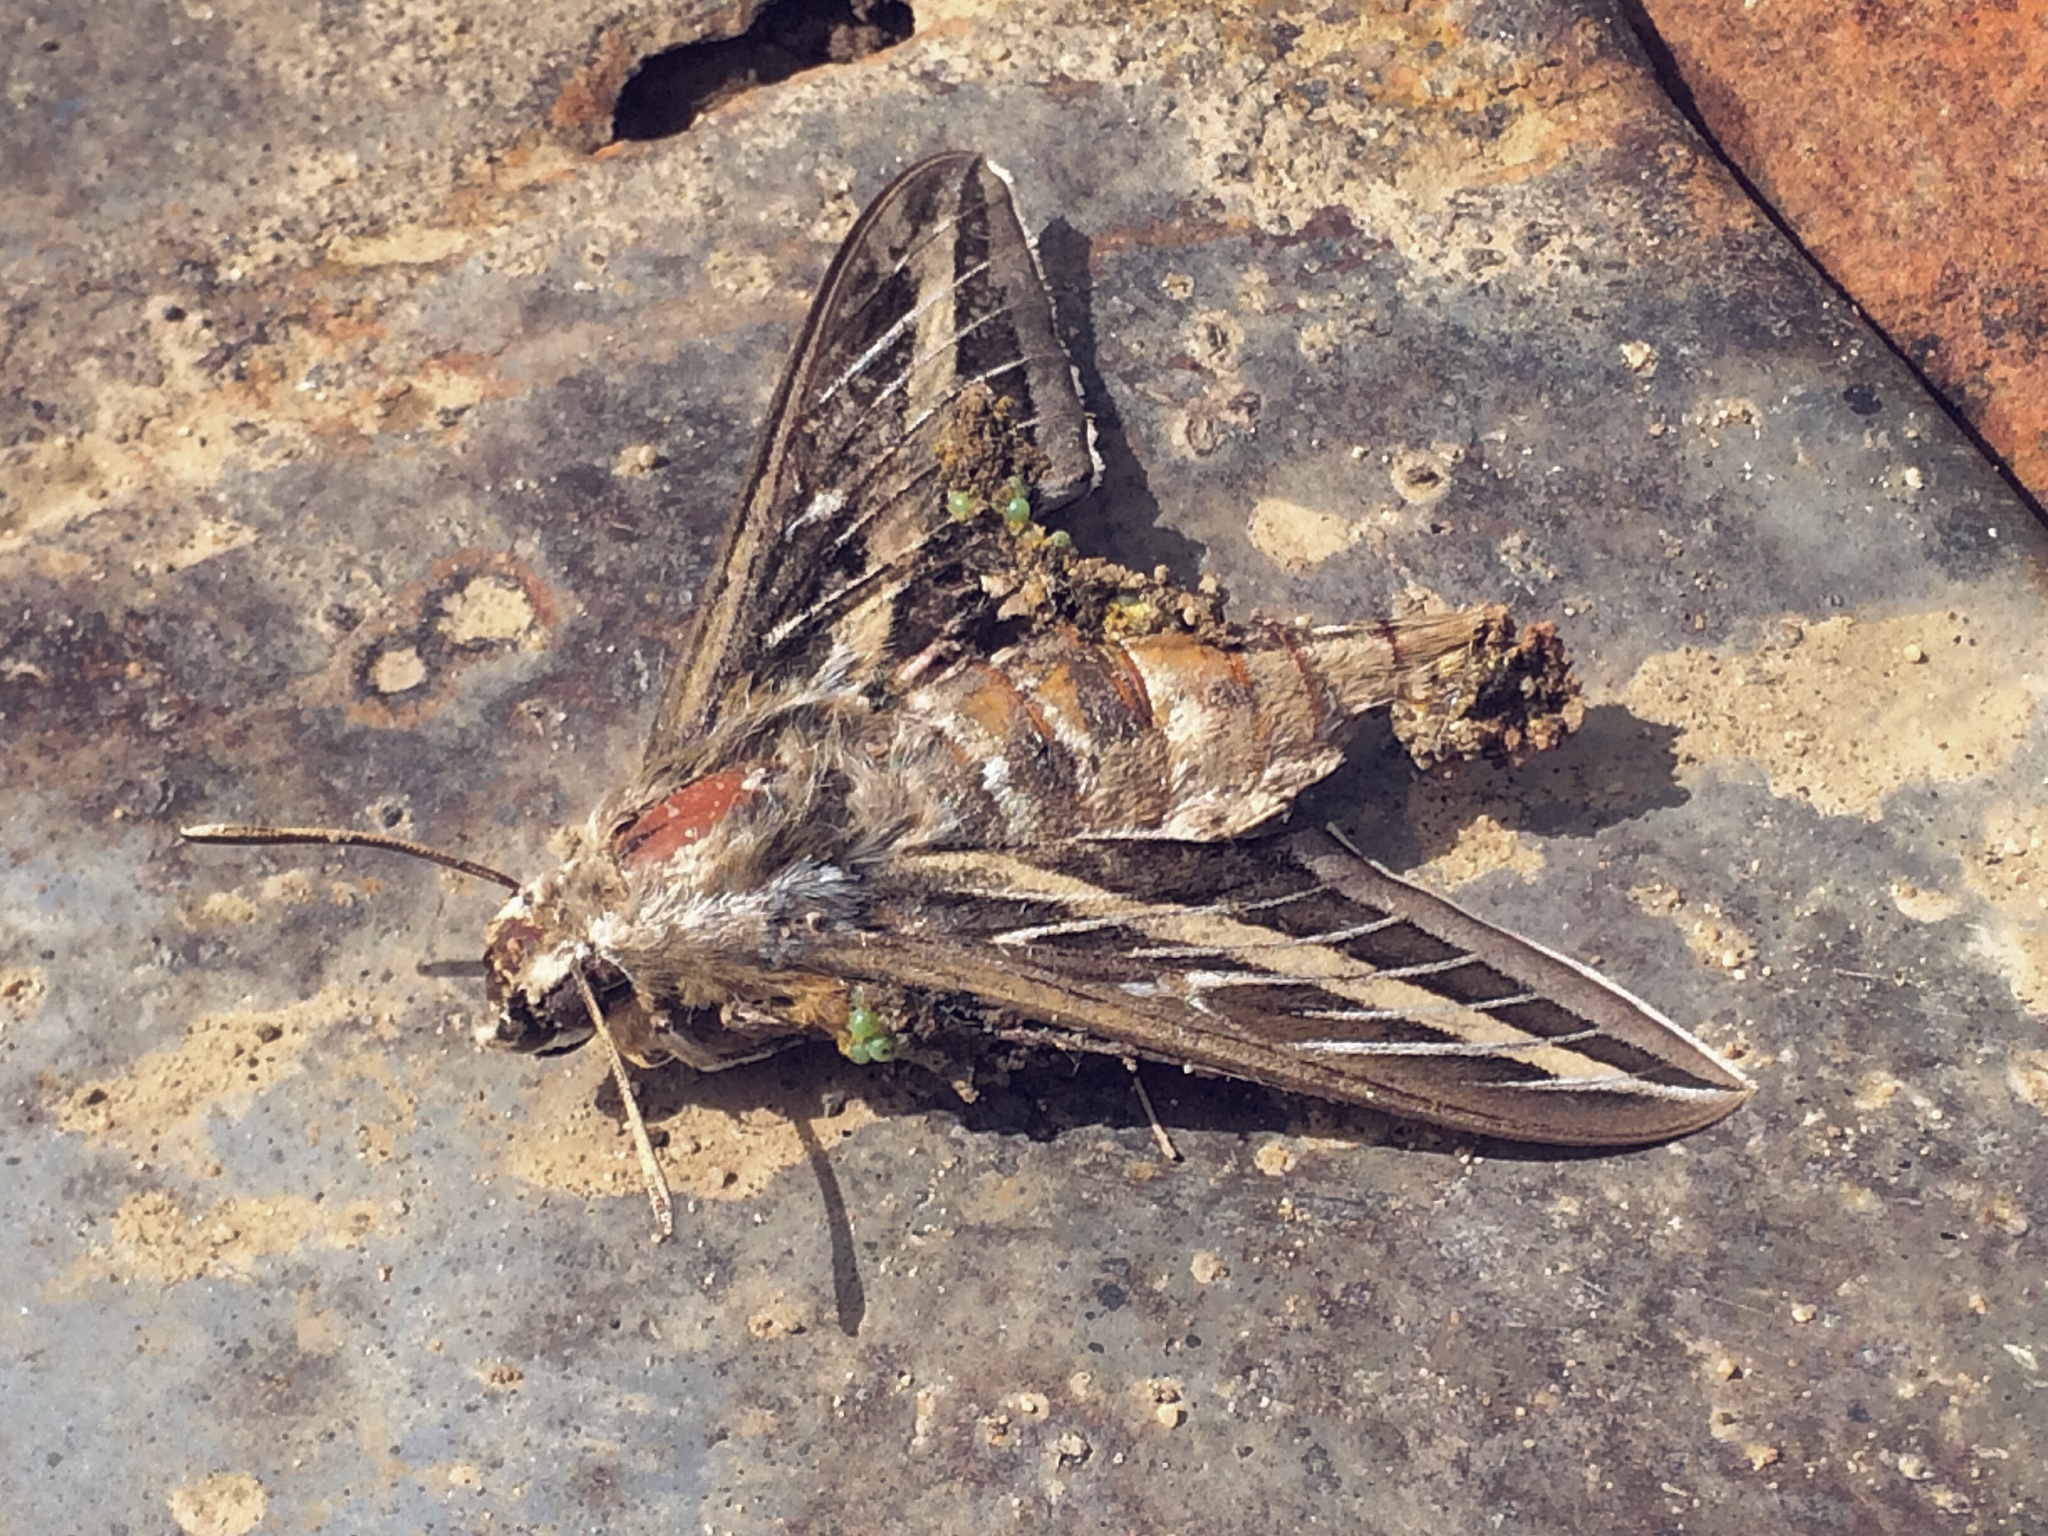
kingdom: Animalia
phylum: Arthropoda
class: Insecta
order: Lepidoptera
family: Sphingidae
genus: Hyles
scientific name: Hyles lineata
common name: White-lined sphinx
